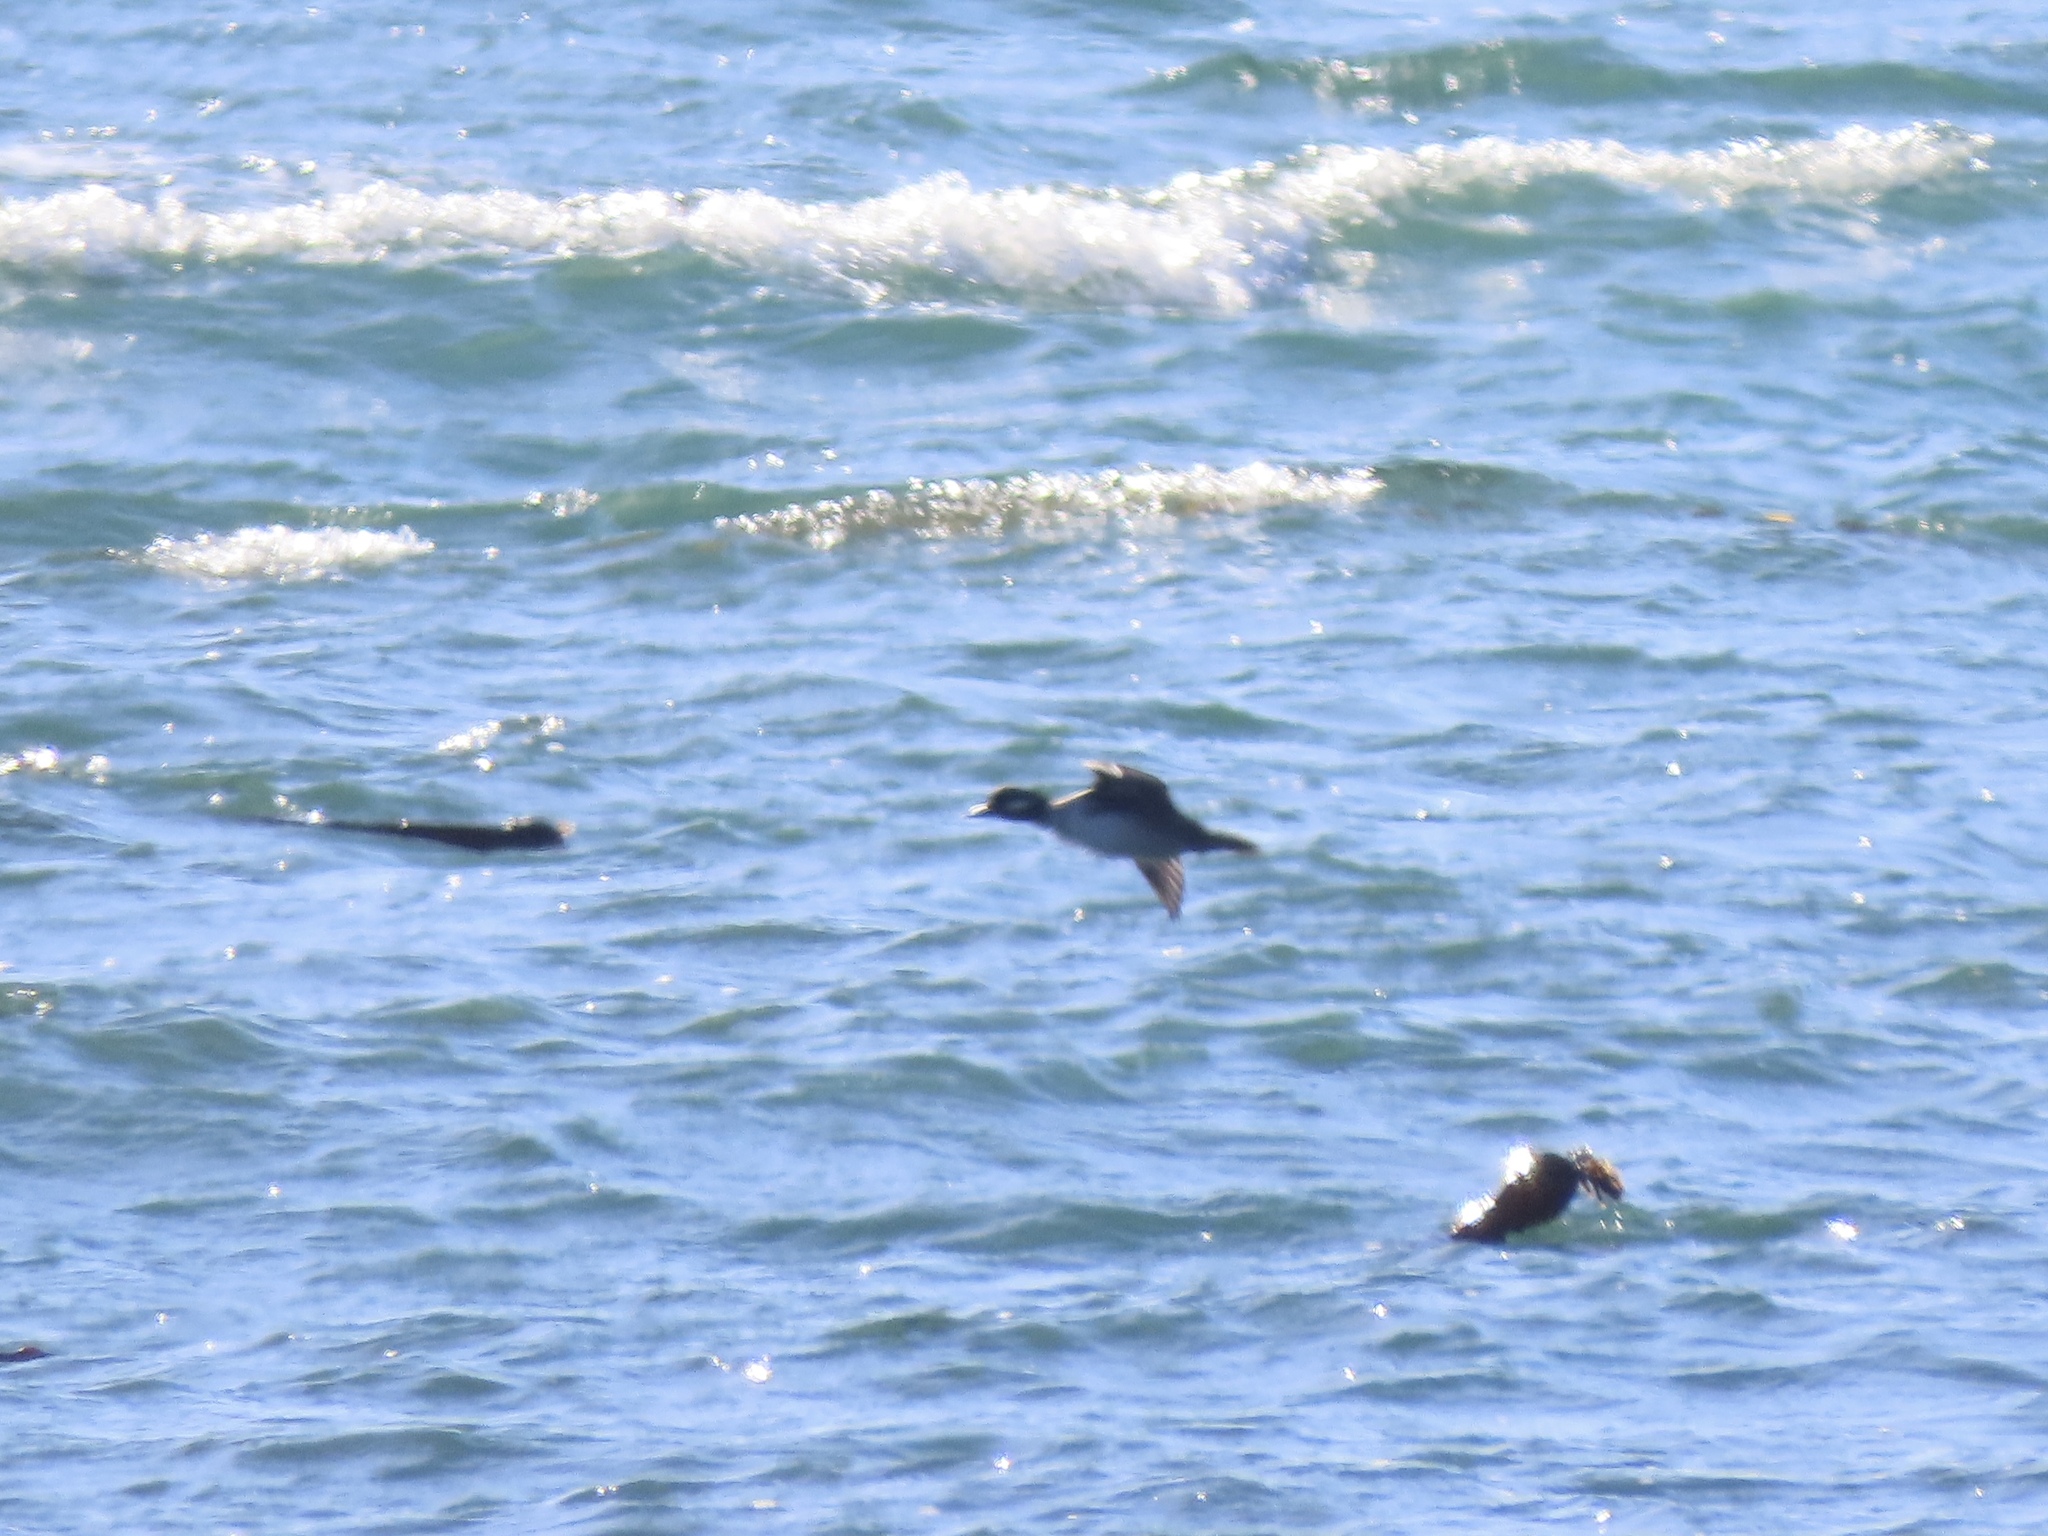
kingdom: Animalia
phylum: Chordata
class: Aves
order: Anseriformes
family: Anatidae
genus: Bucephala
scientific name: Bucephala albeola
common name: Bufflehead
